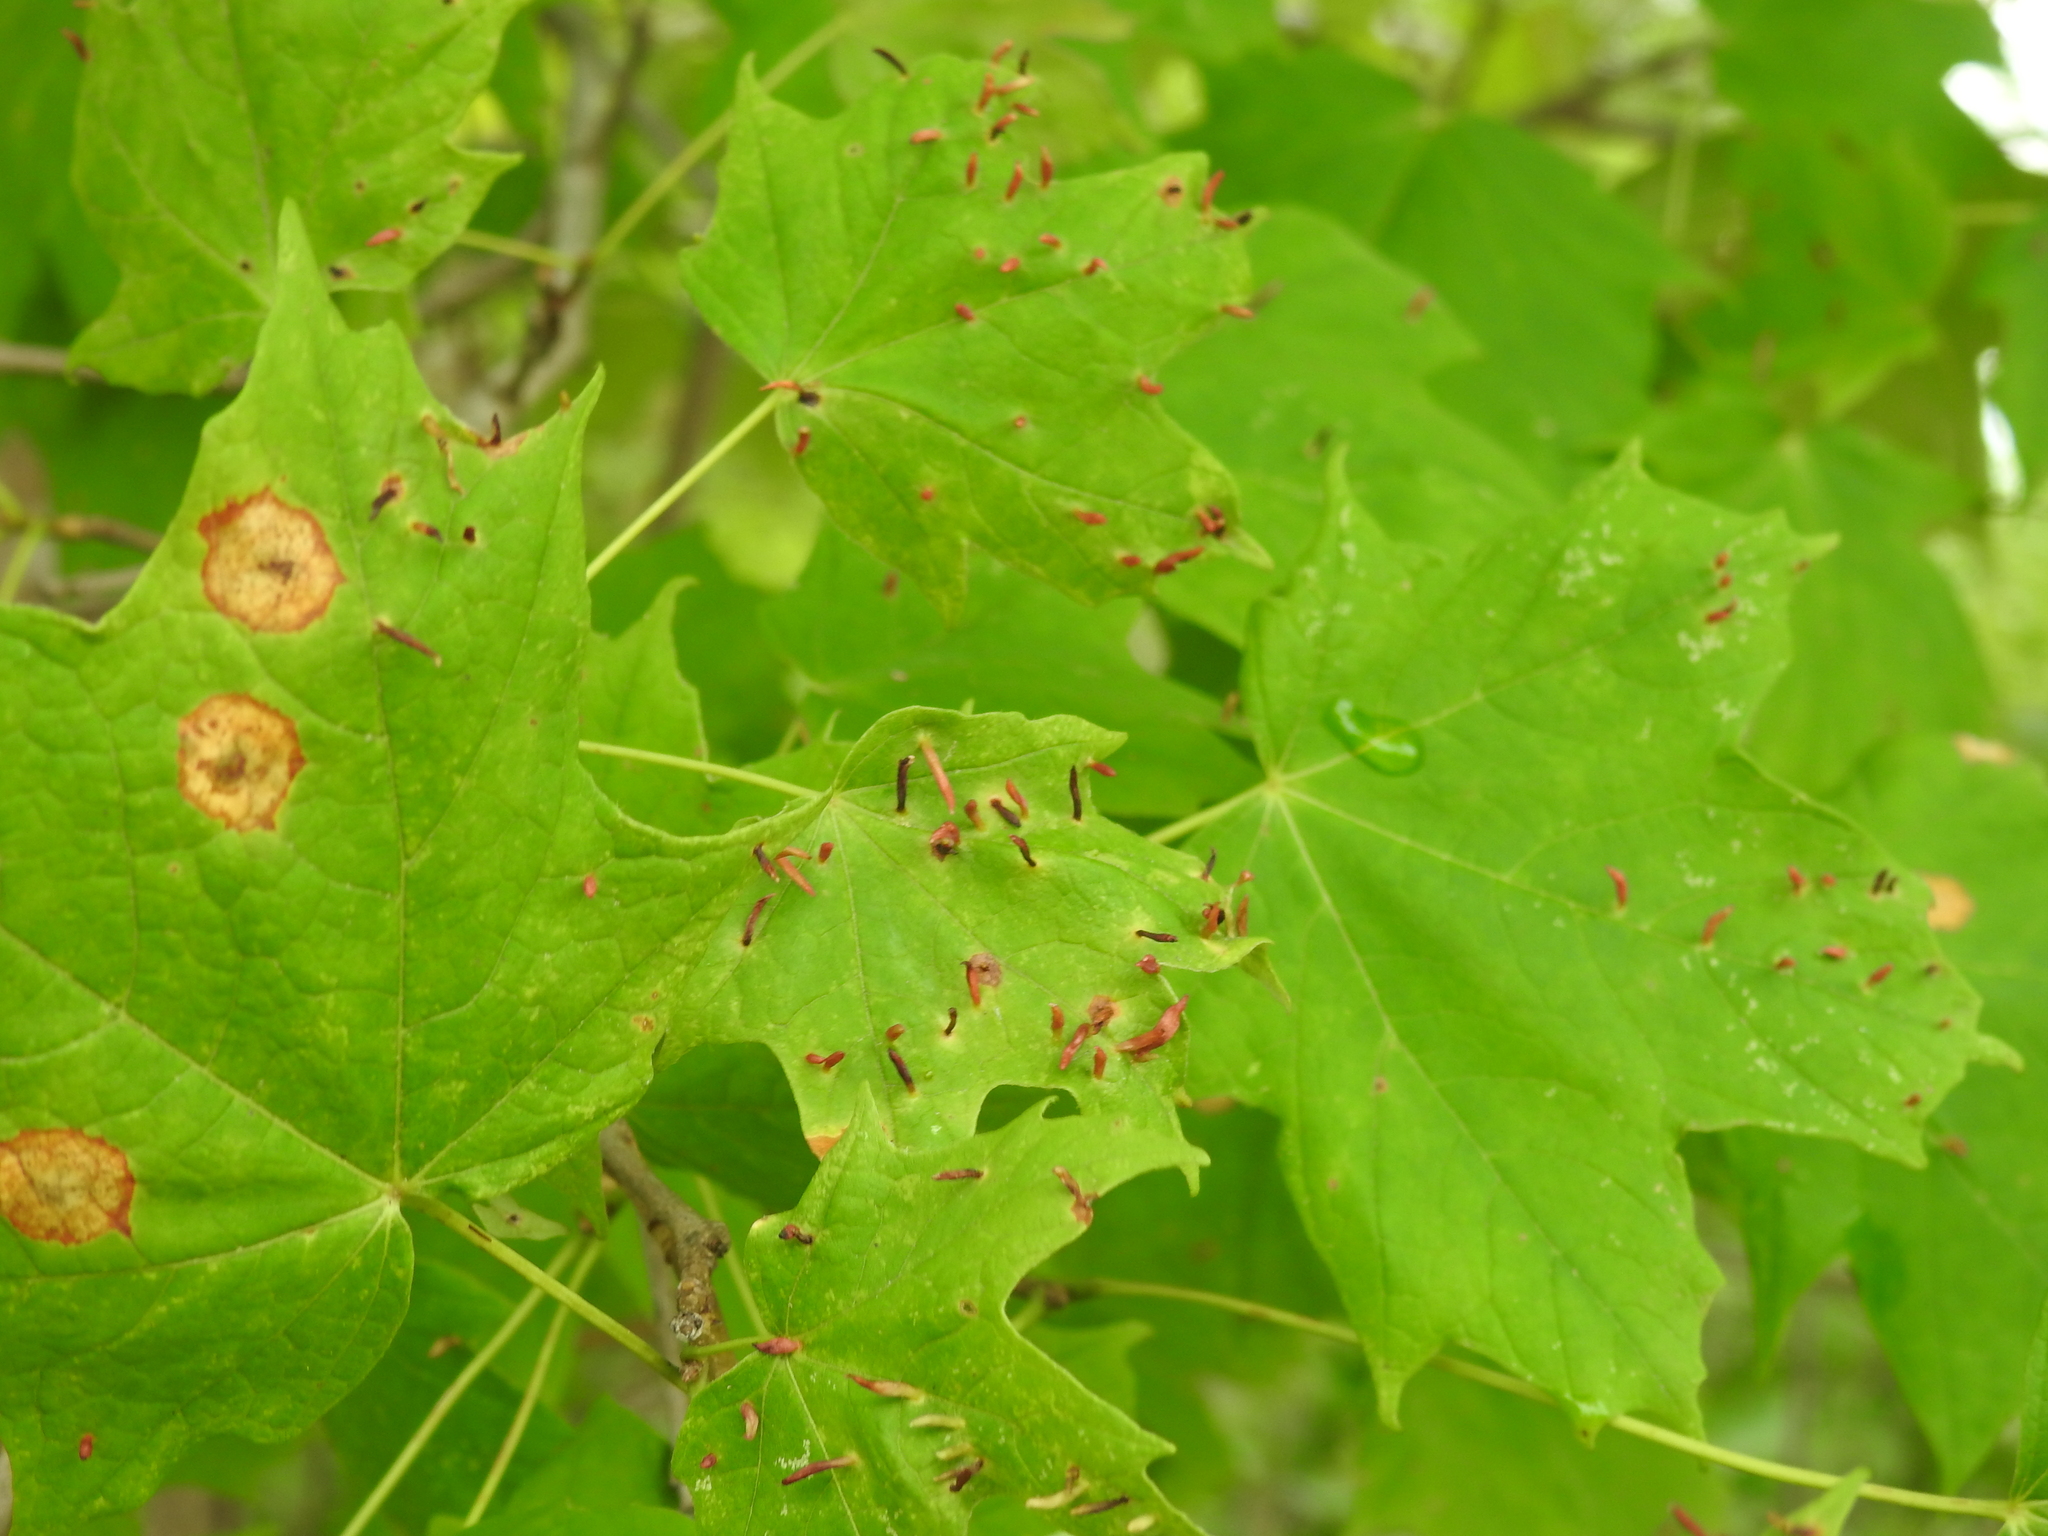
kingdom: Animalia
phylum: Arthropoda
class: Arachnida
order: Trombidiformes
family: Eriophyidae
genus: Vasates
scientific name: Vasates aceriscrumena
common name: Maple spindle gall mite
